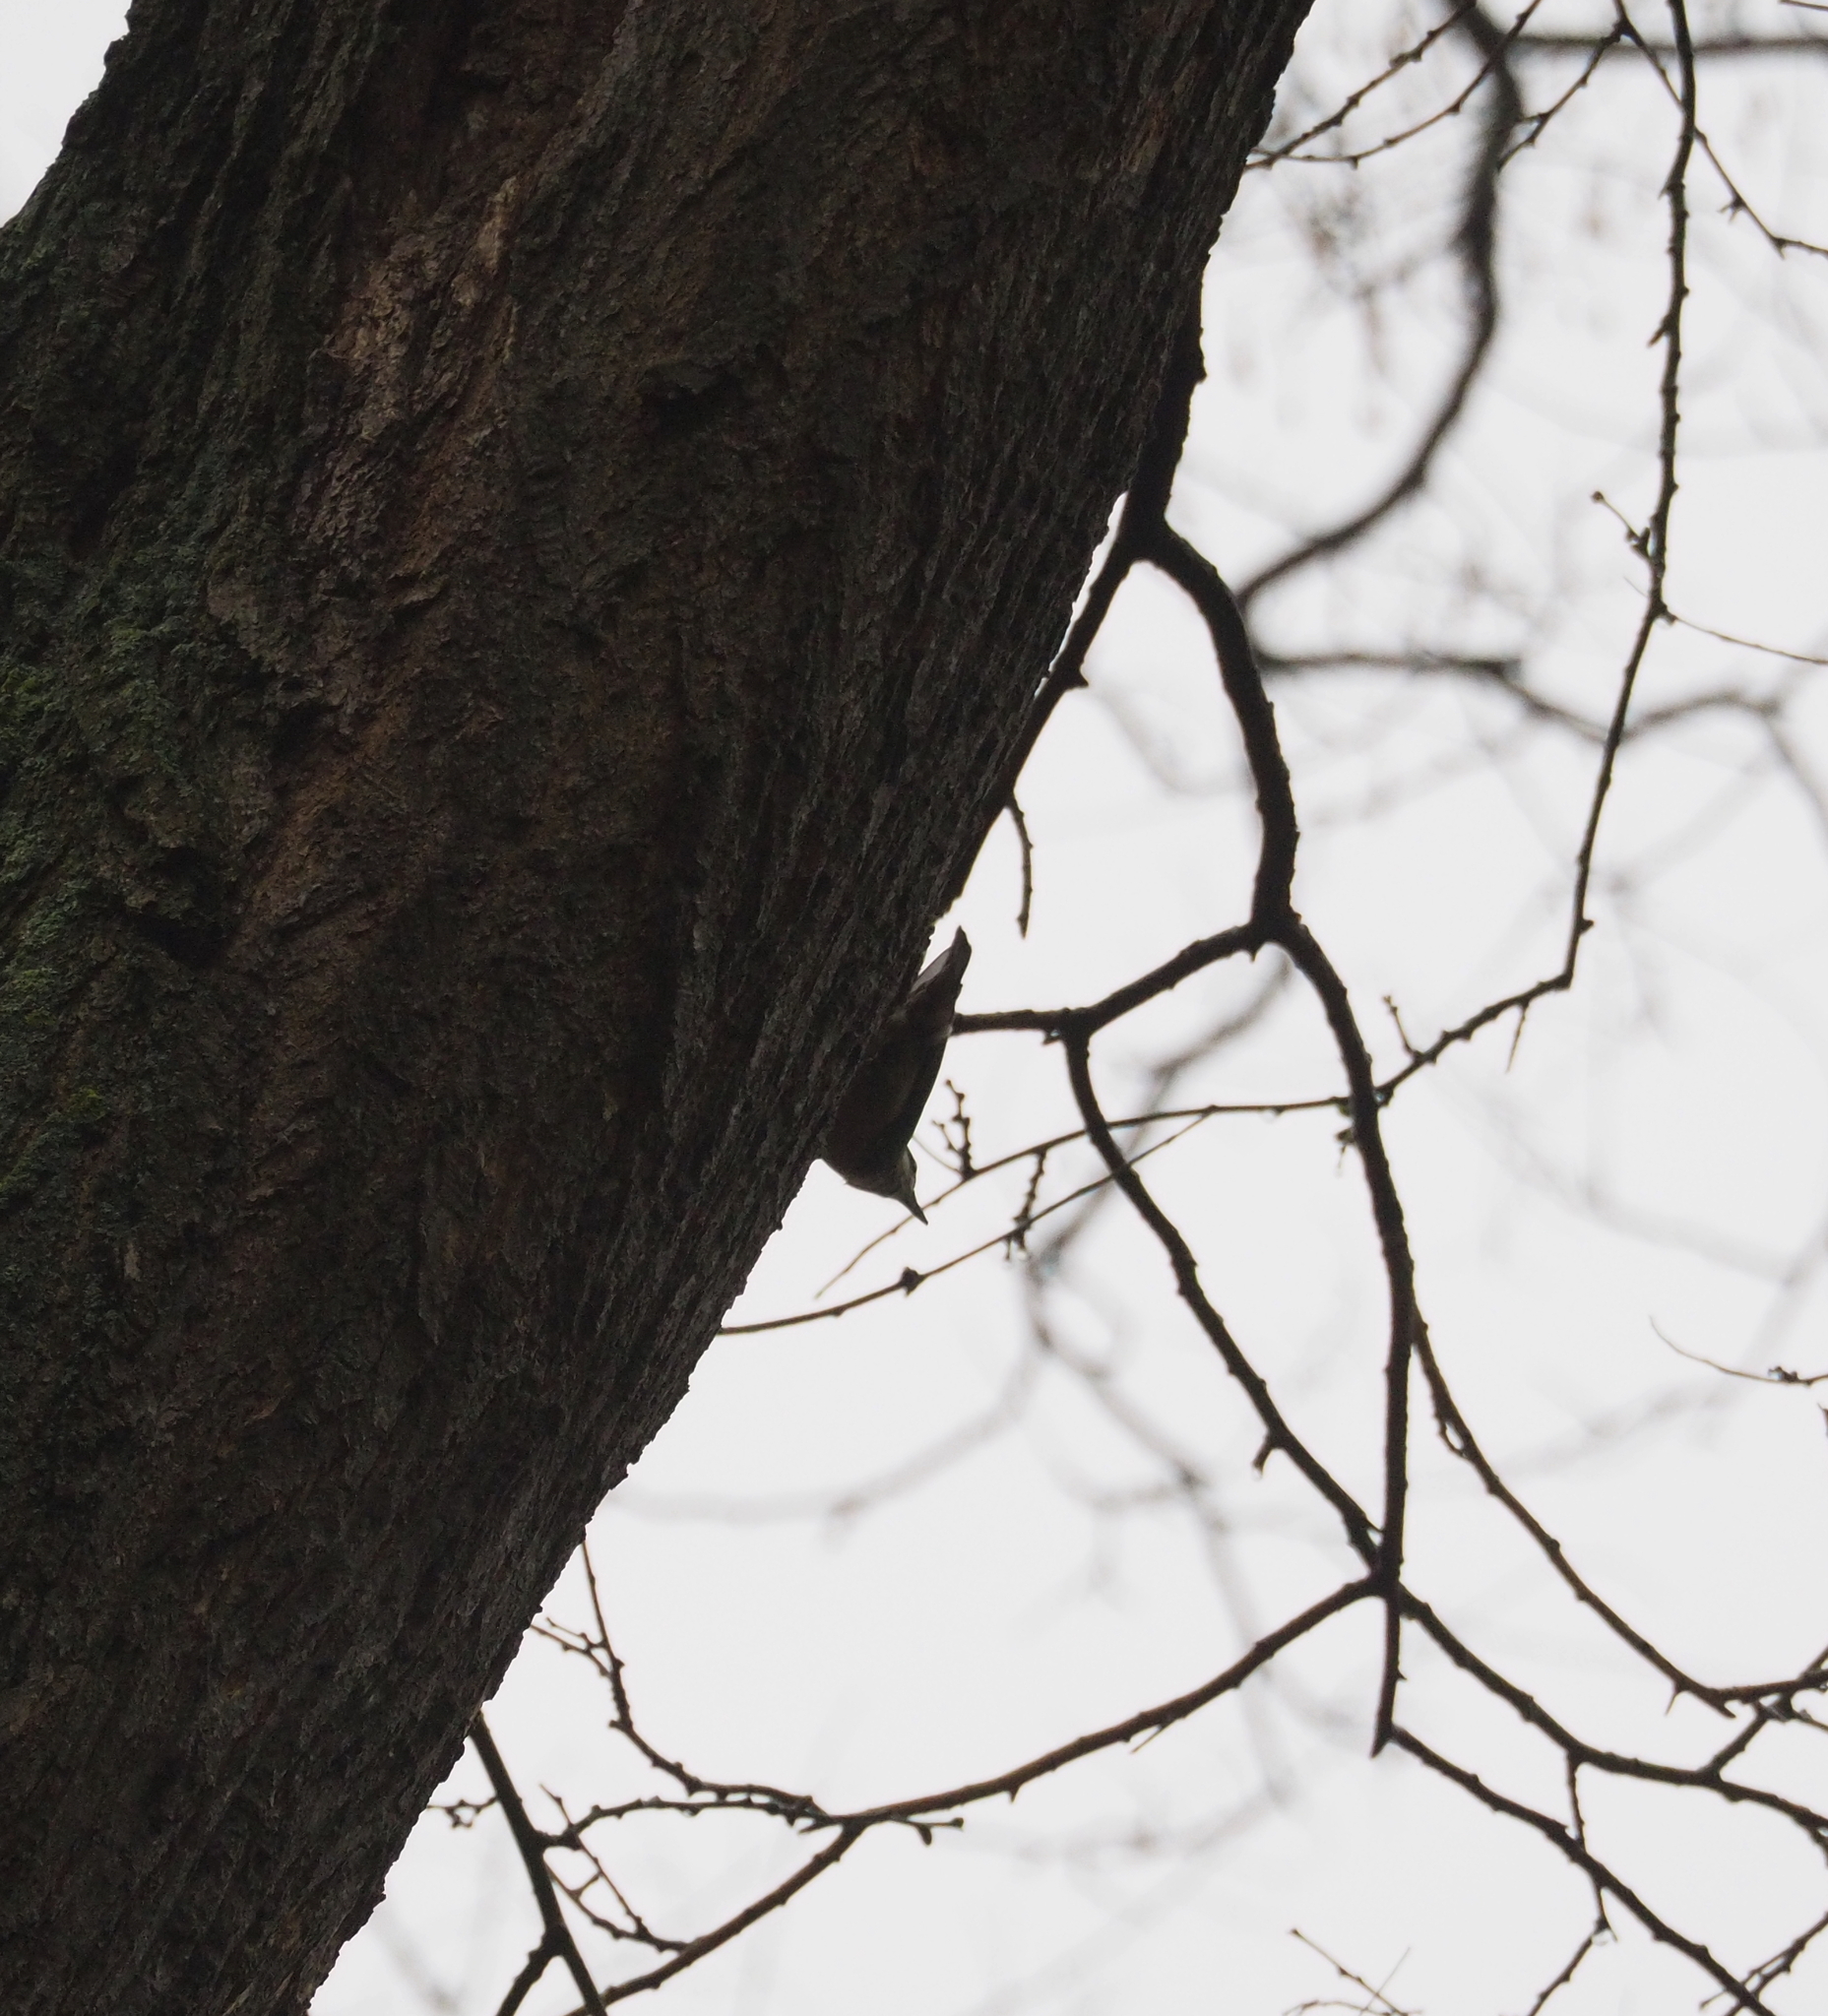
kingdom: Animalia
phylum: Chordata
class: Aves
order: Passeriformes
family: Sittidae
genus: Sitta
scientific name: Sitta europaea
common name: Eurasian nuthatch
